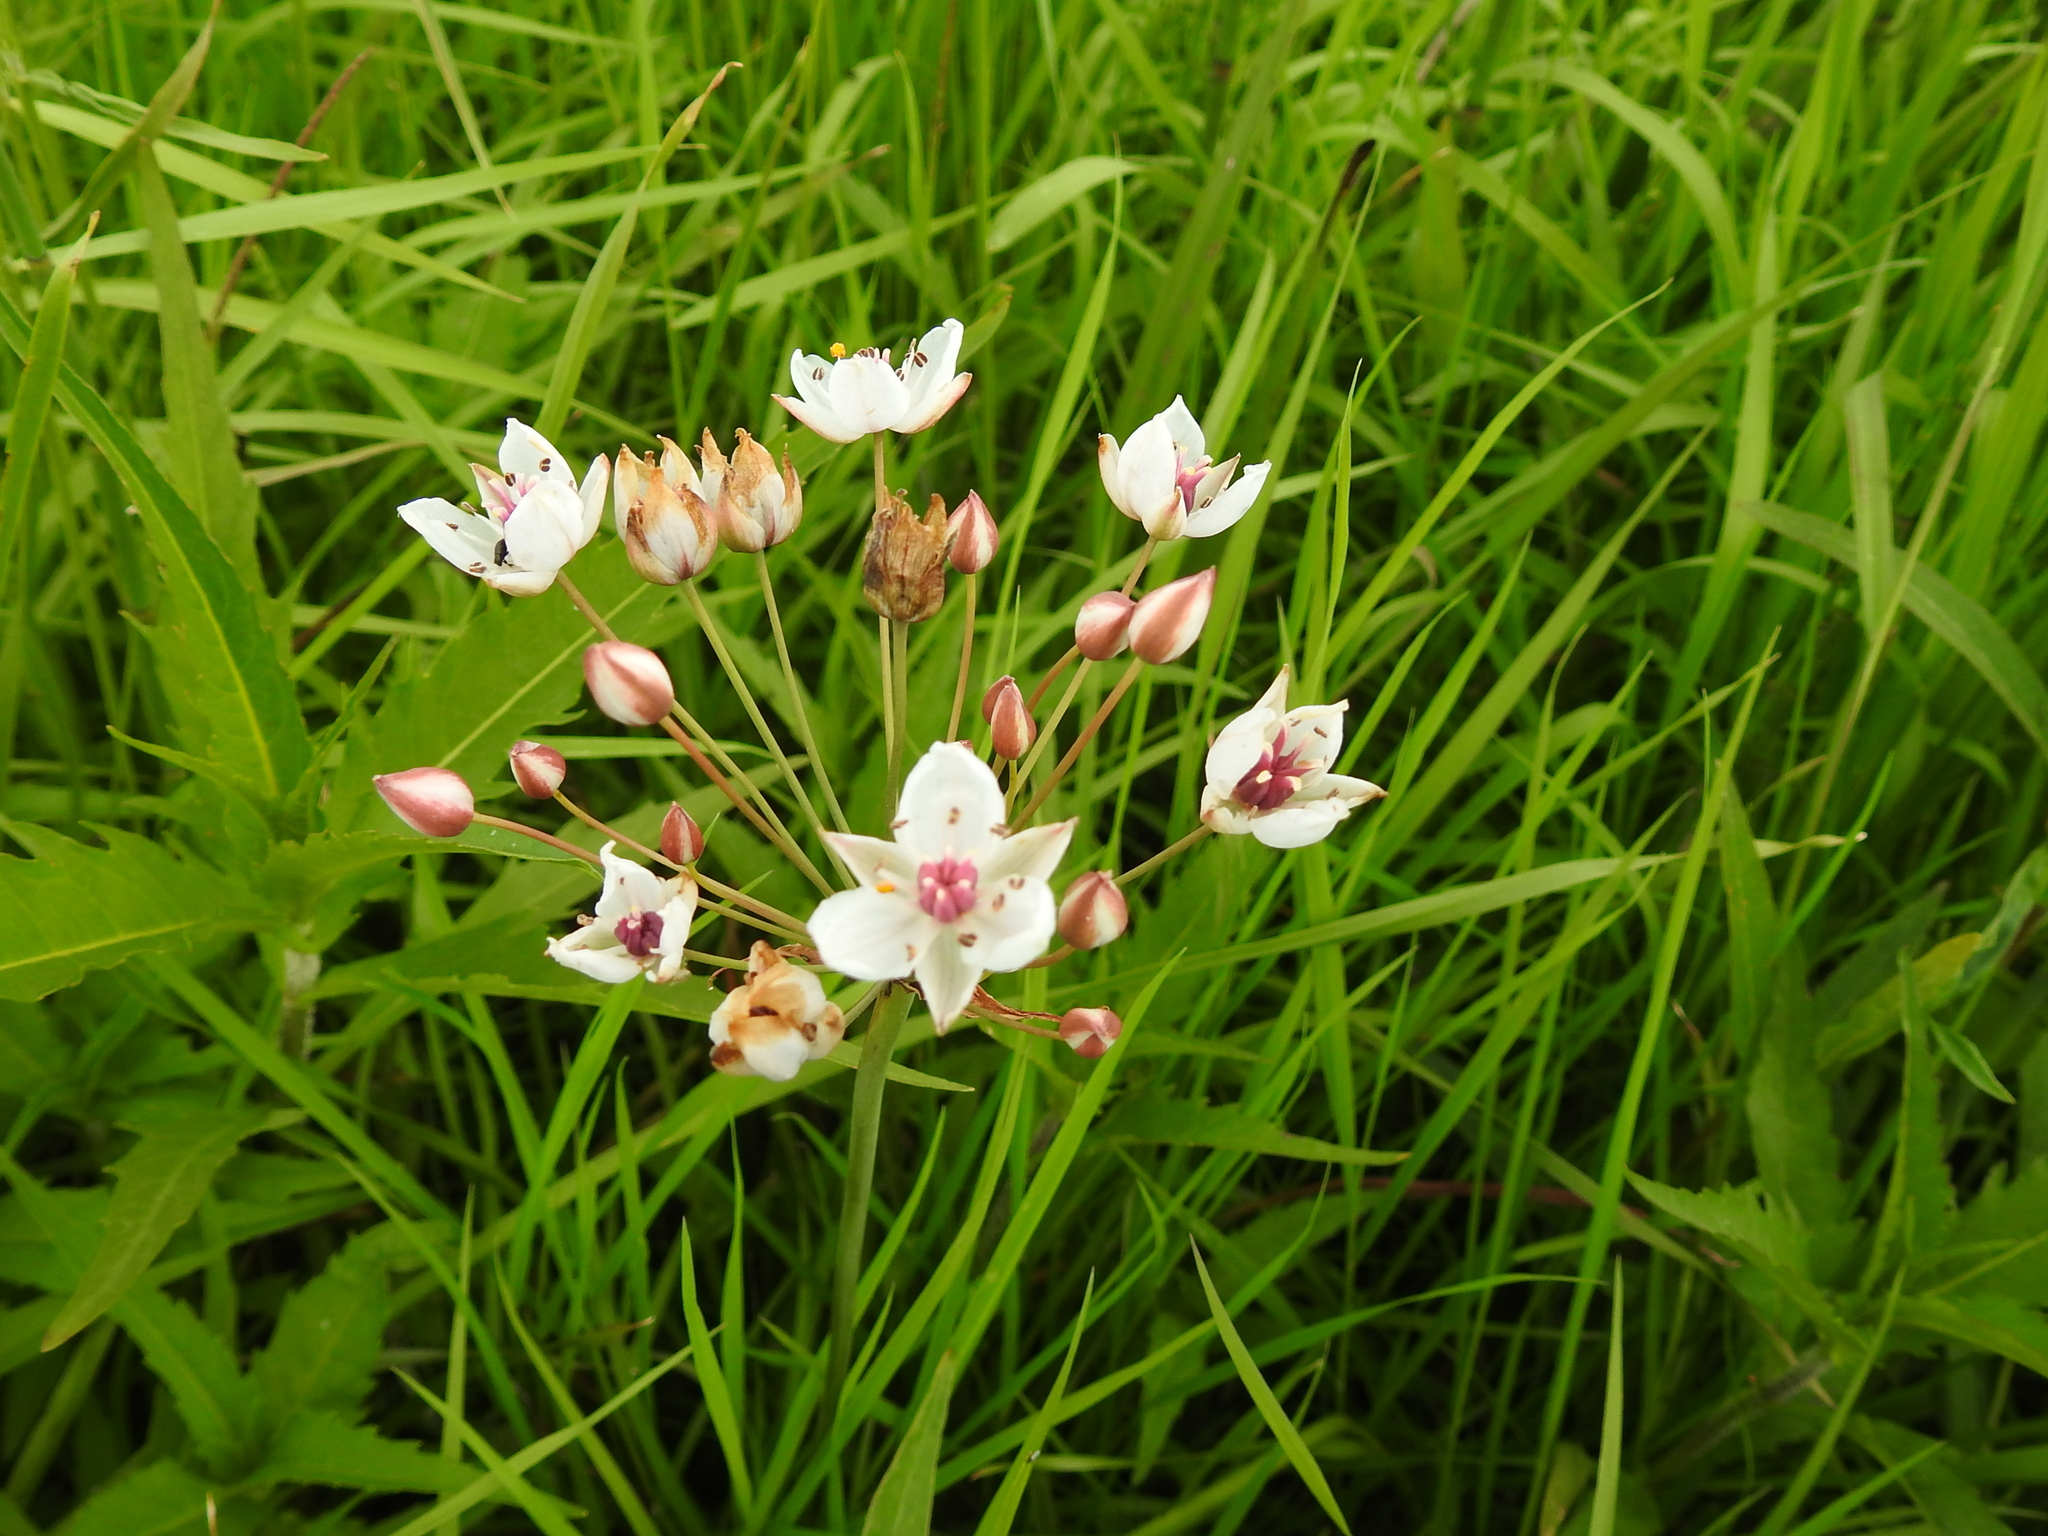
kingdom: Plantae
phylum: Tracheophyta
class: Liliopsida
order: Alismatales
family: Butomaceae
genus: Butomus
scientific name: Butomus umbellatus
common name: Flowering-rush
